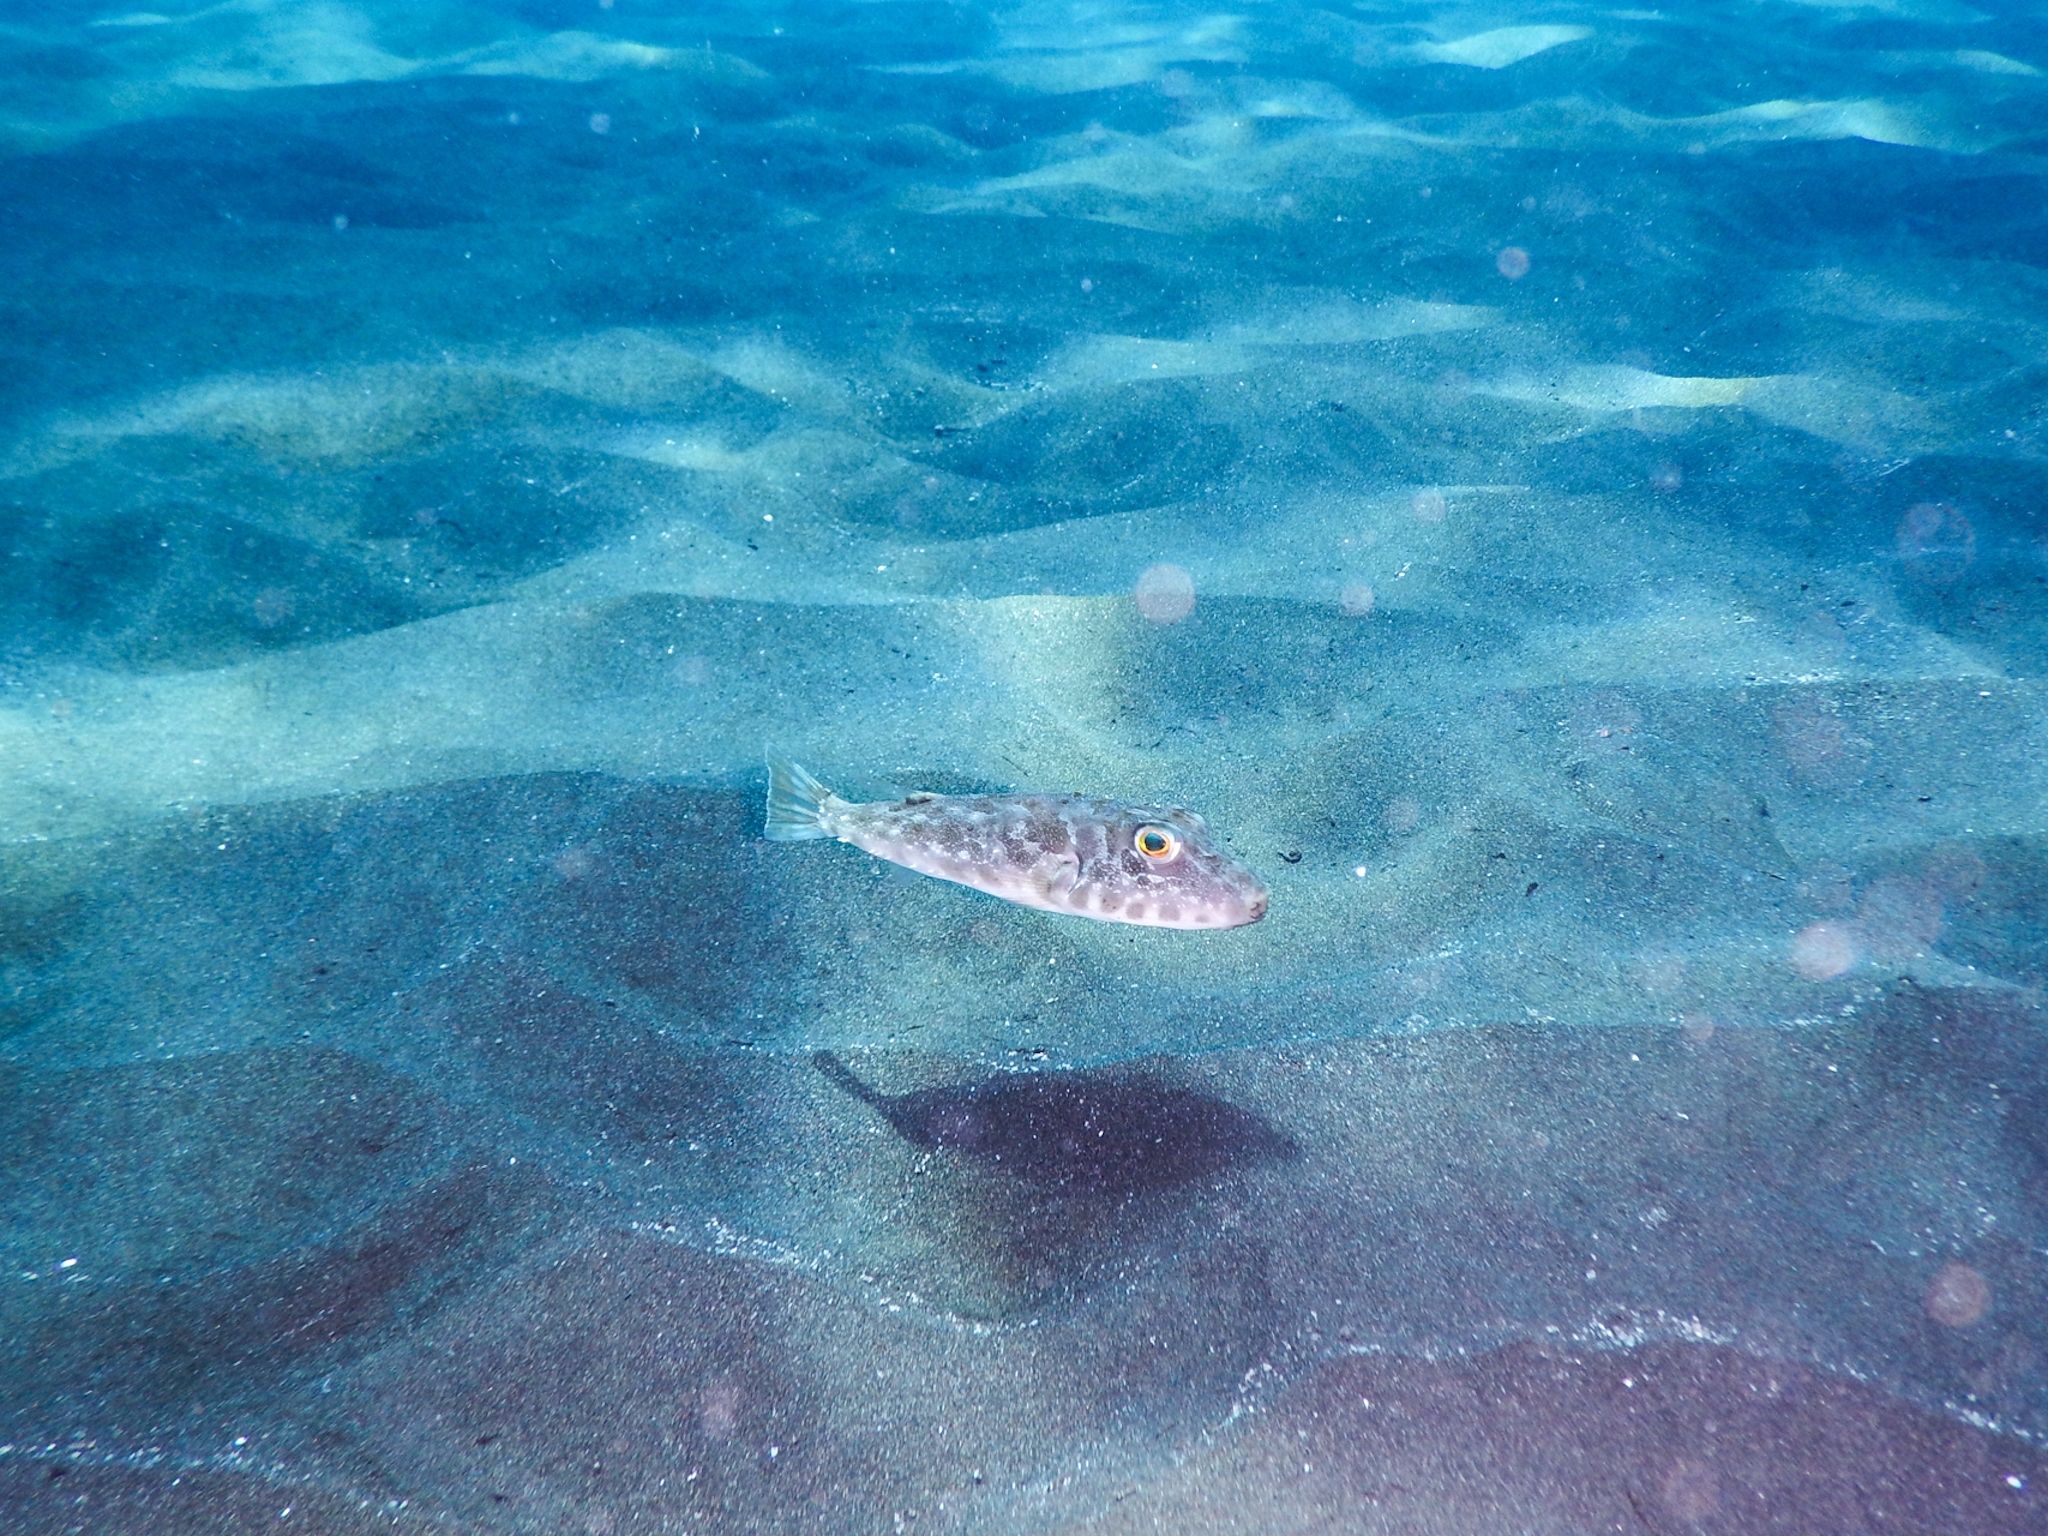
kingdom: Animalia
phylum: Chordata
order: Tetraodontiformes
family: Tetraodontidae
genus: Sphoeroides
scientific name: Sphoeroides marmoratus
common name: Guinean puffer
